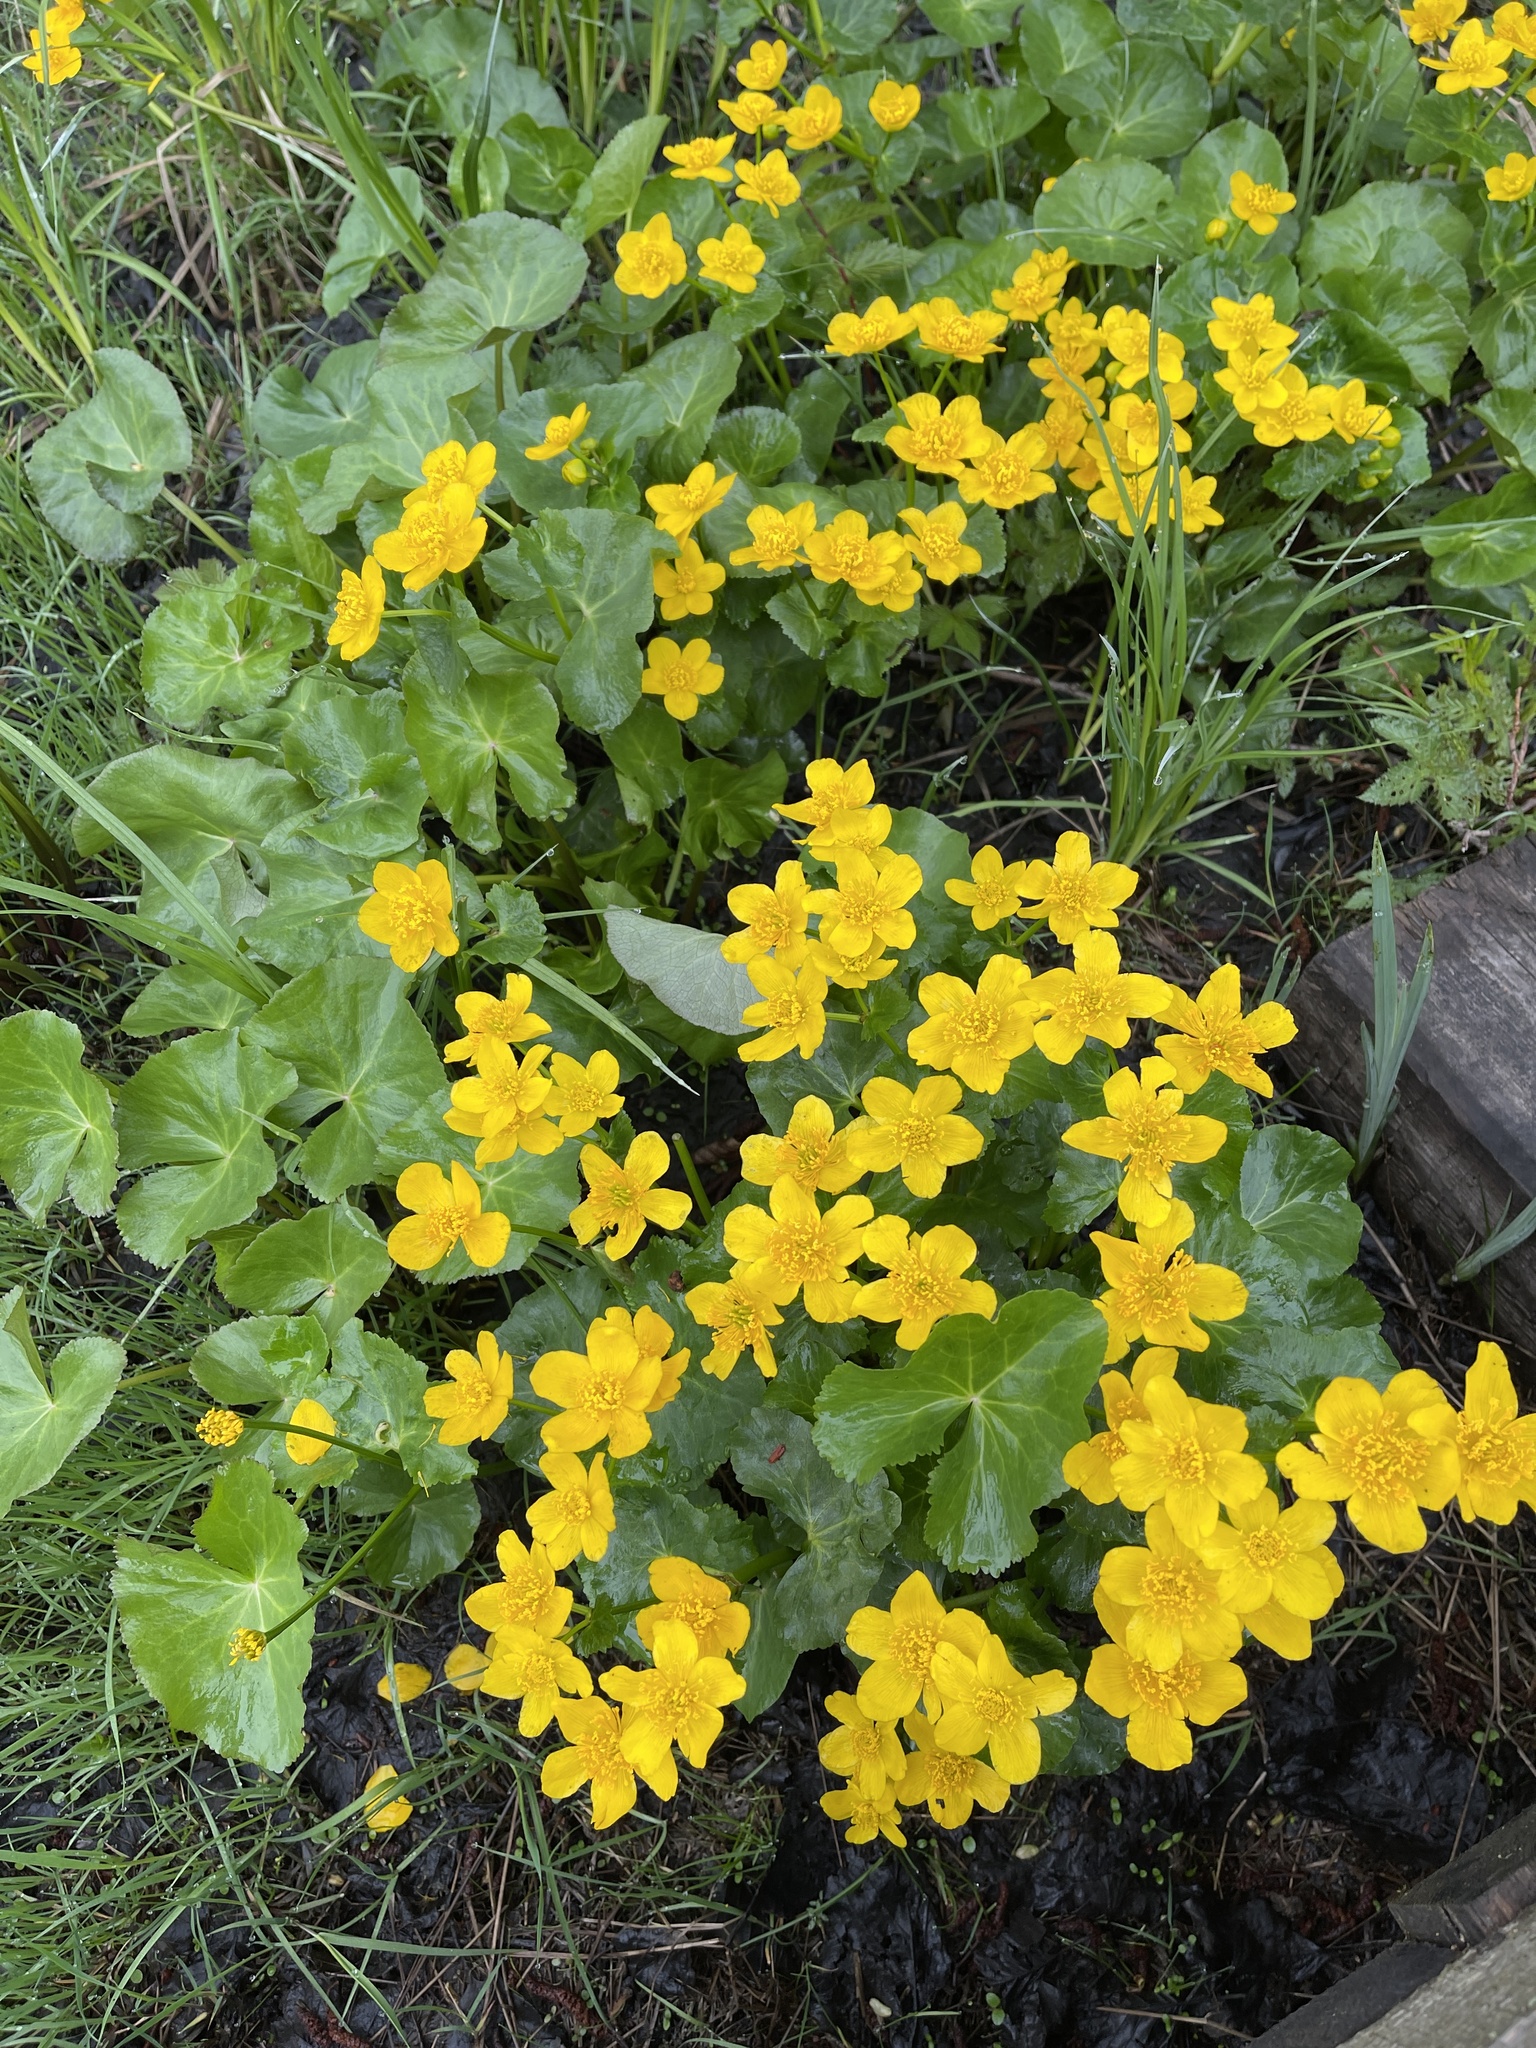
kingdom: Plantae
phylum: Tracheophyta
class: Magnoliopsida
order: Ranunculales
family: Ranunculaceae
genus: Caltha
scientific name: Caltha palustris
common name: Marsh marigold
